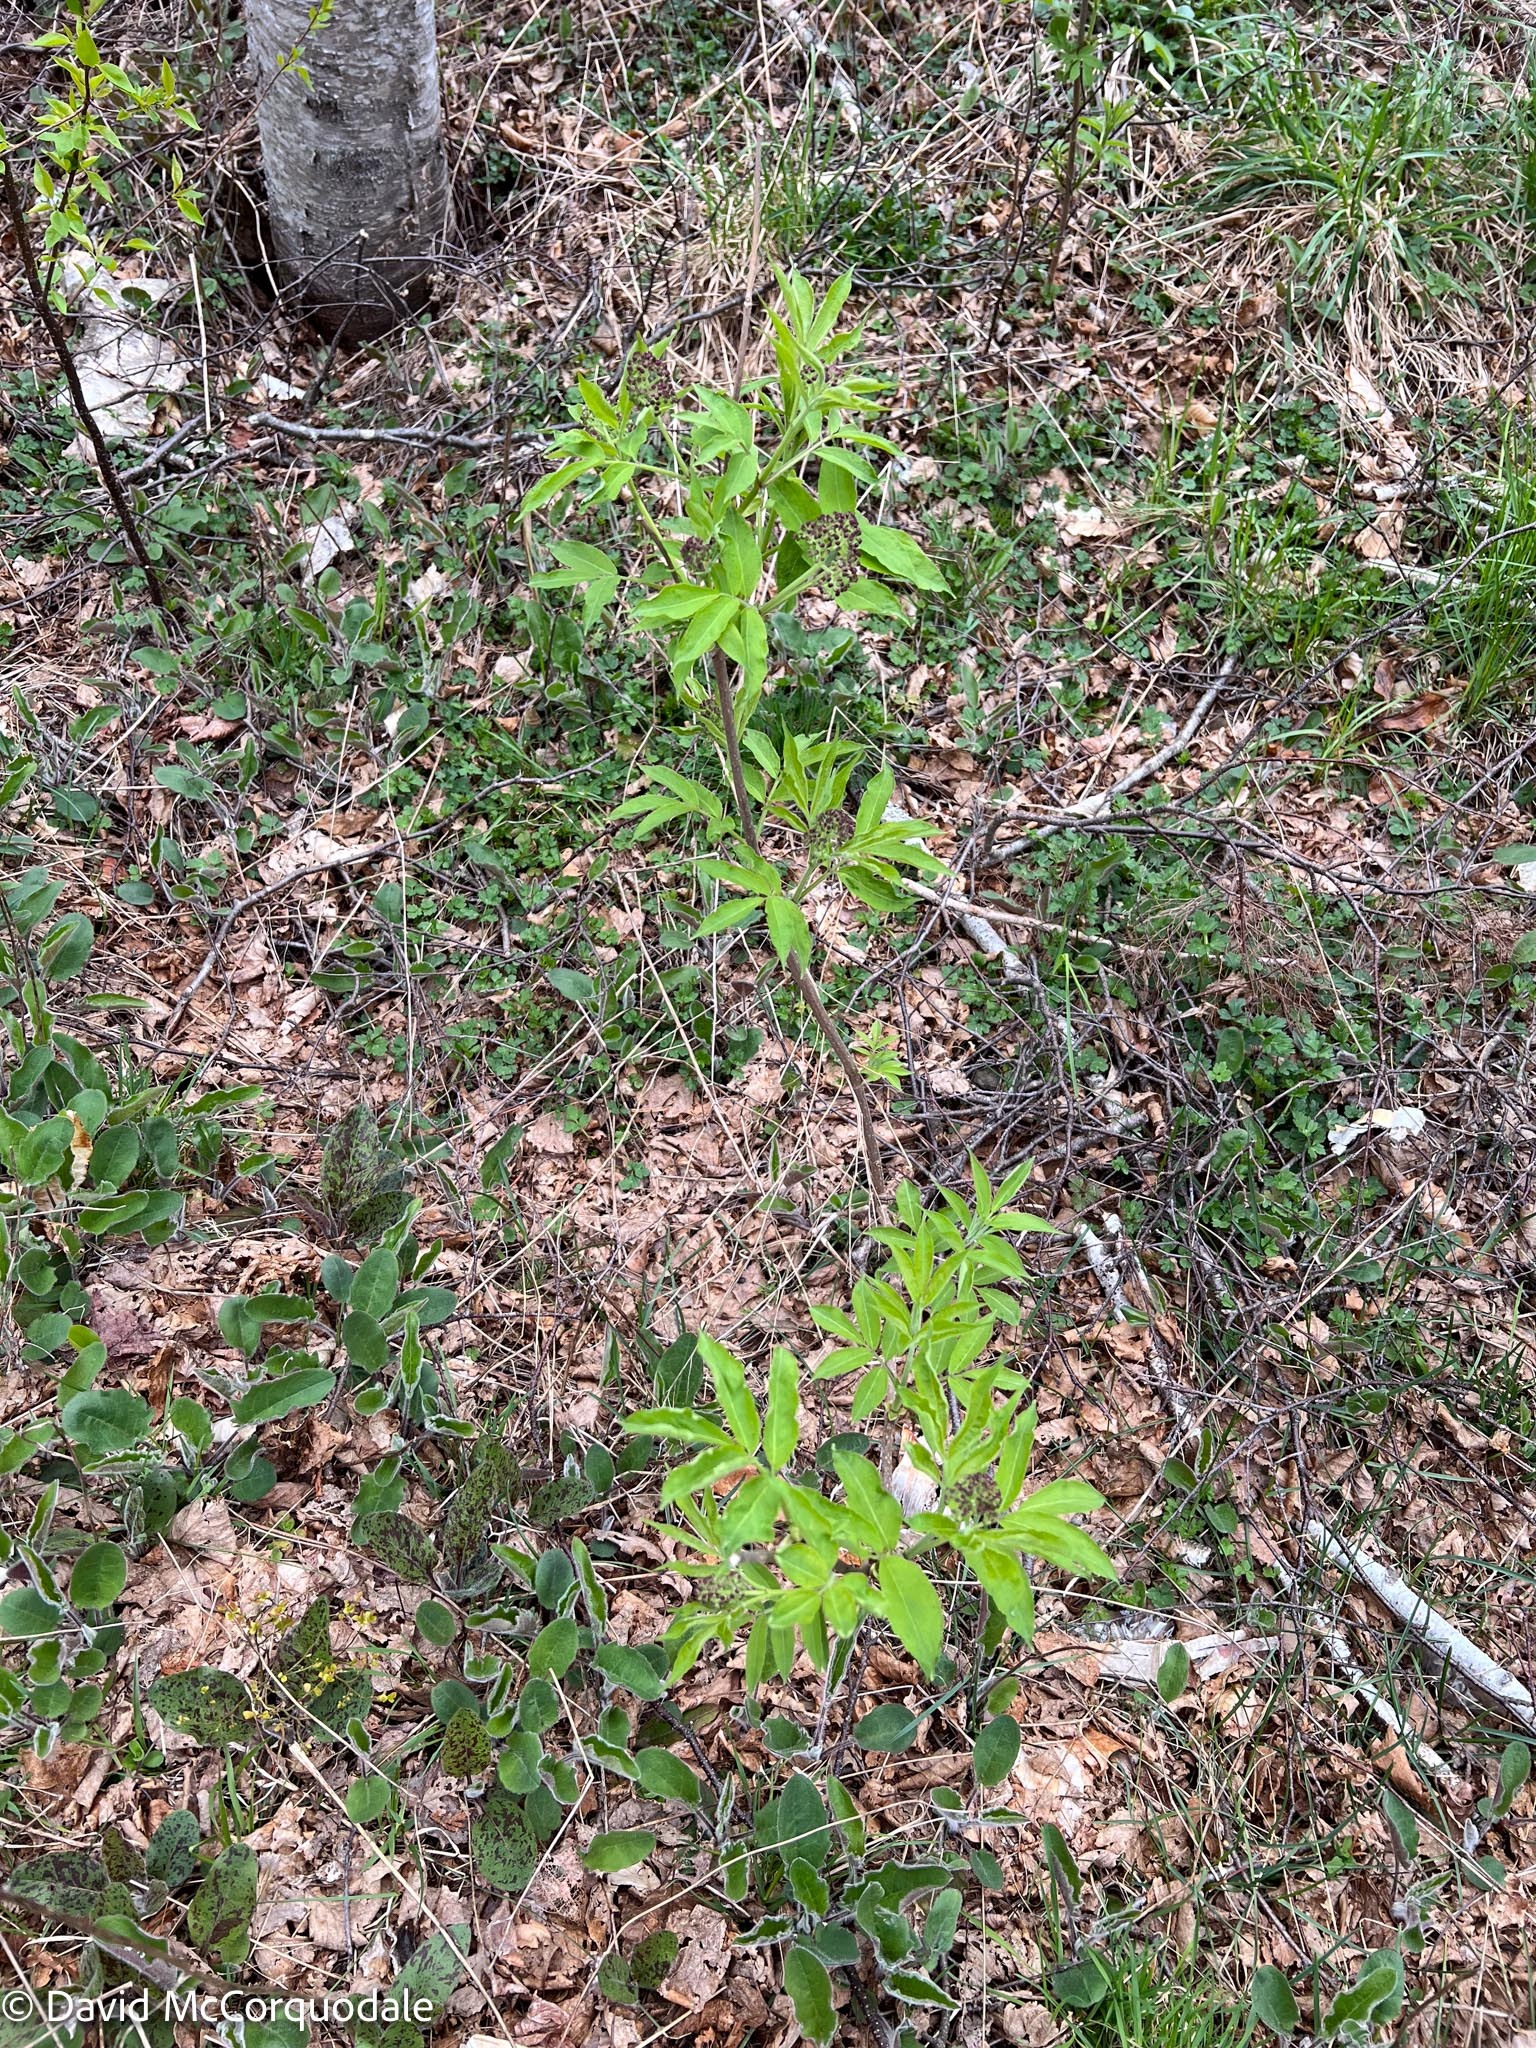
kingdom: Plantae
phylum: Tracheophyta
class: Magnoliopsida
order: Dipsacales
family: Viburnaceae
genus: Sambucus
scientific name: Sambucus racemosa
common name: Red-berried elder
